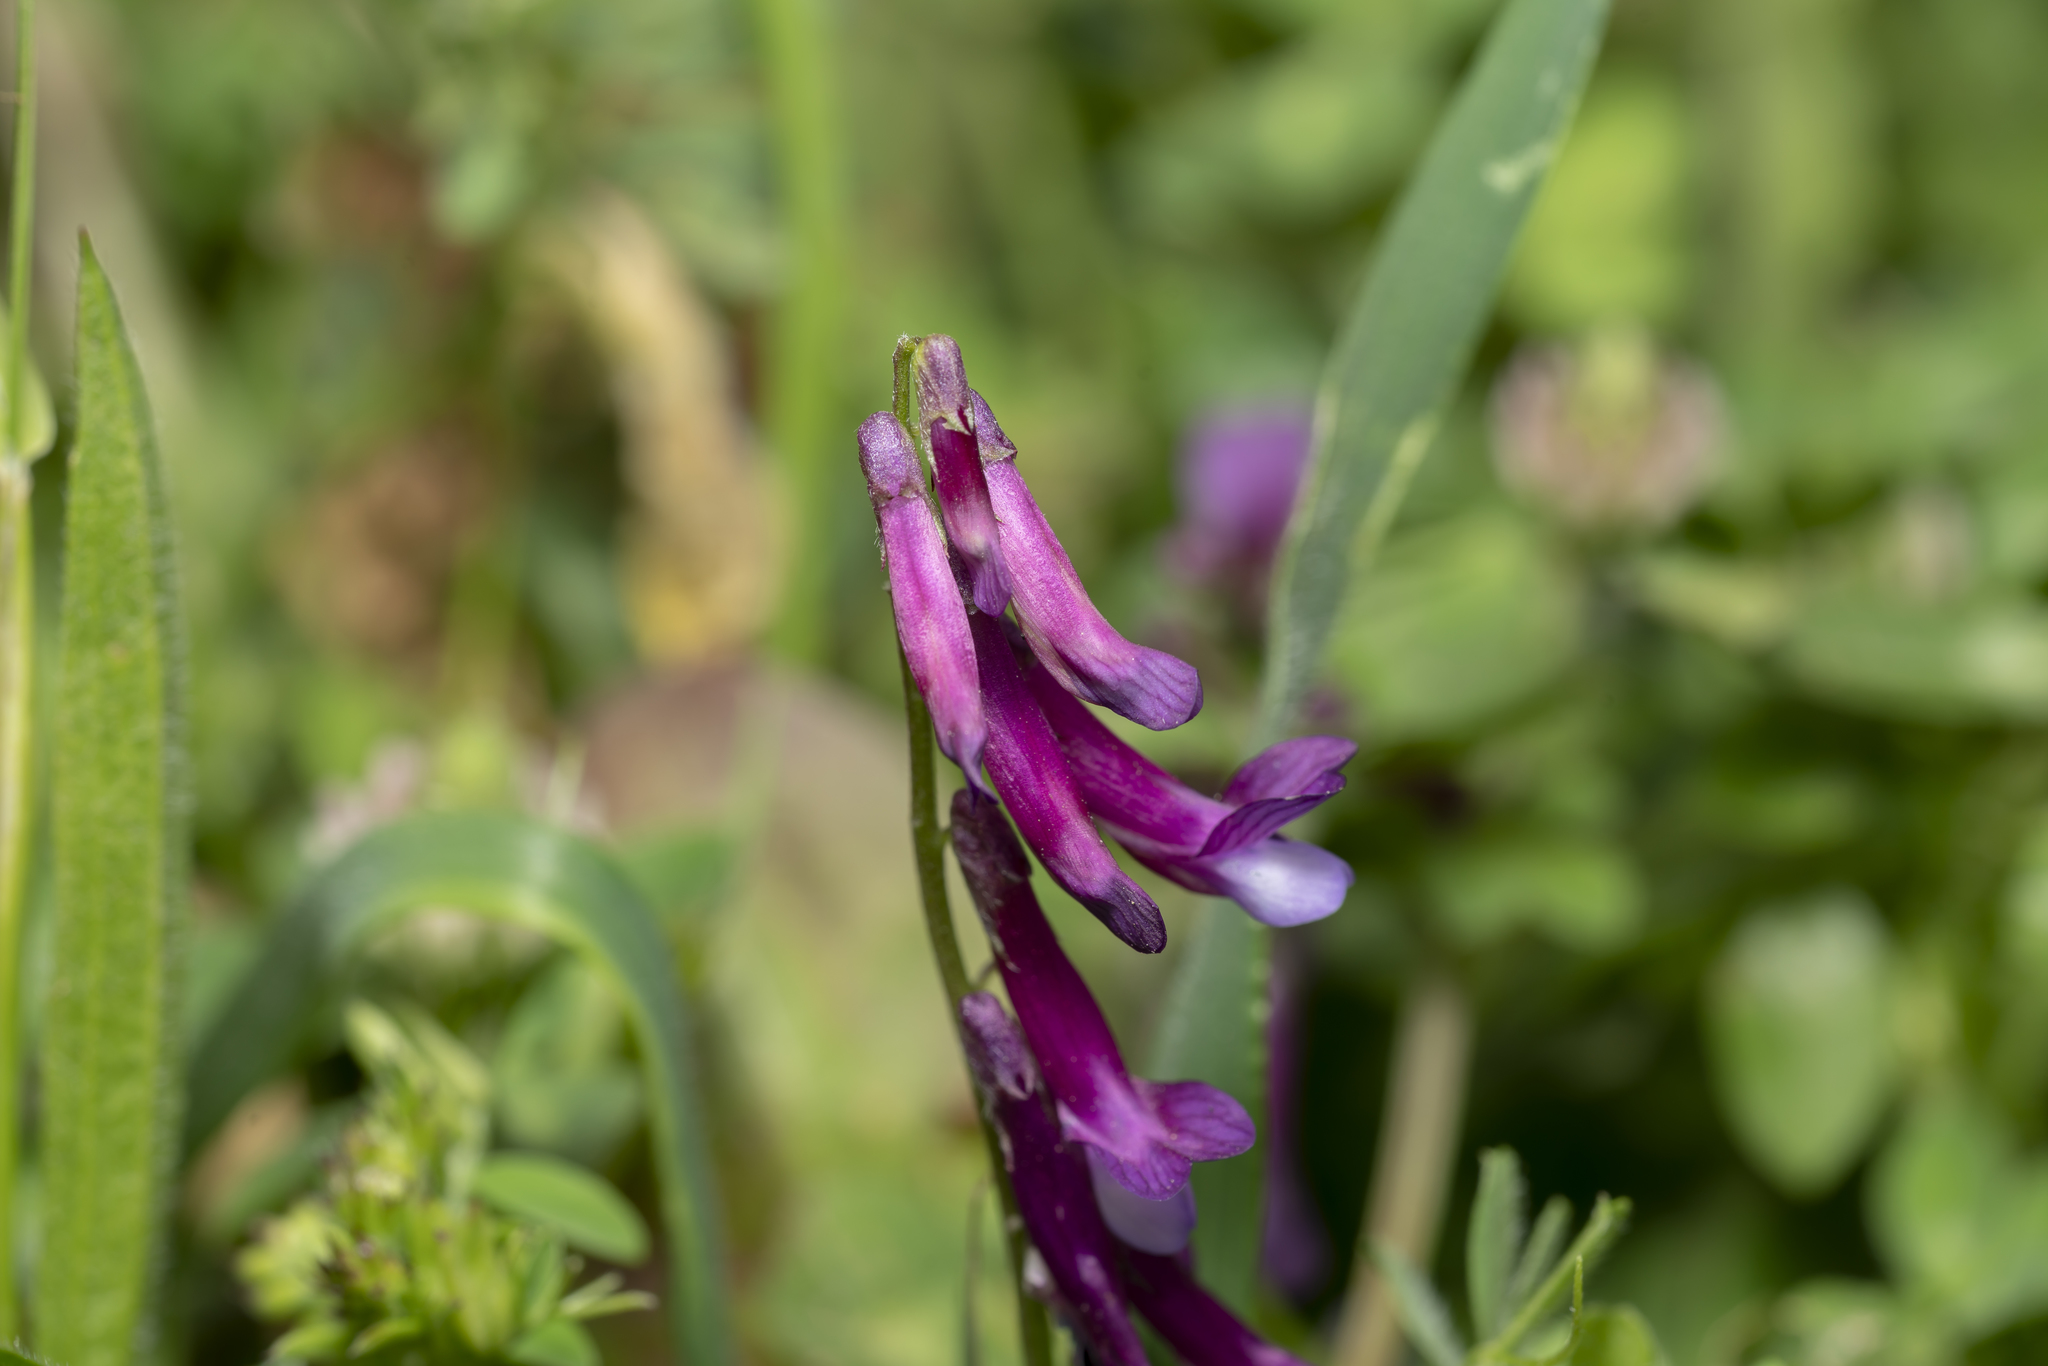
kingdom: Plantae
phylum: Tracheophyta
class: Magnoliopsida
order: Fabales
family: Fabaceae
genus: Vicia
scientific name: Vicia eriocarpa
